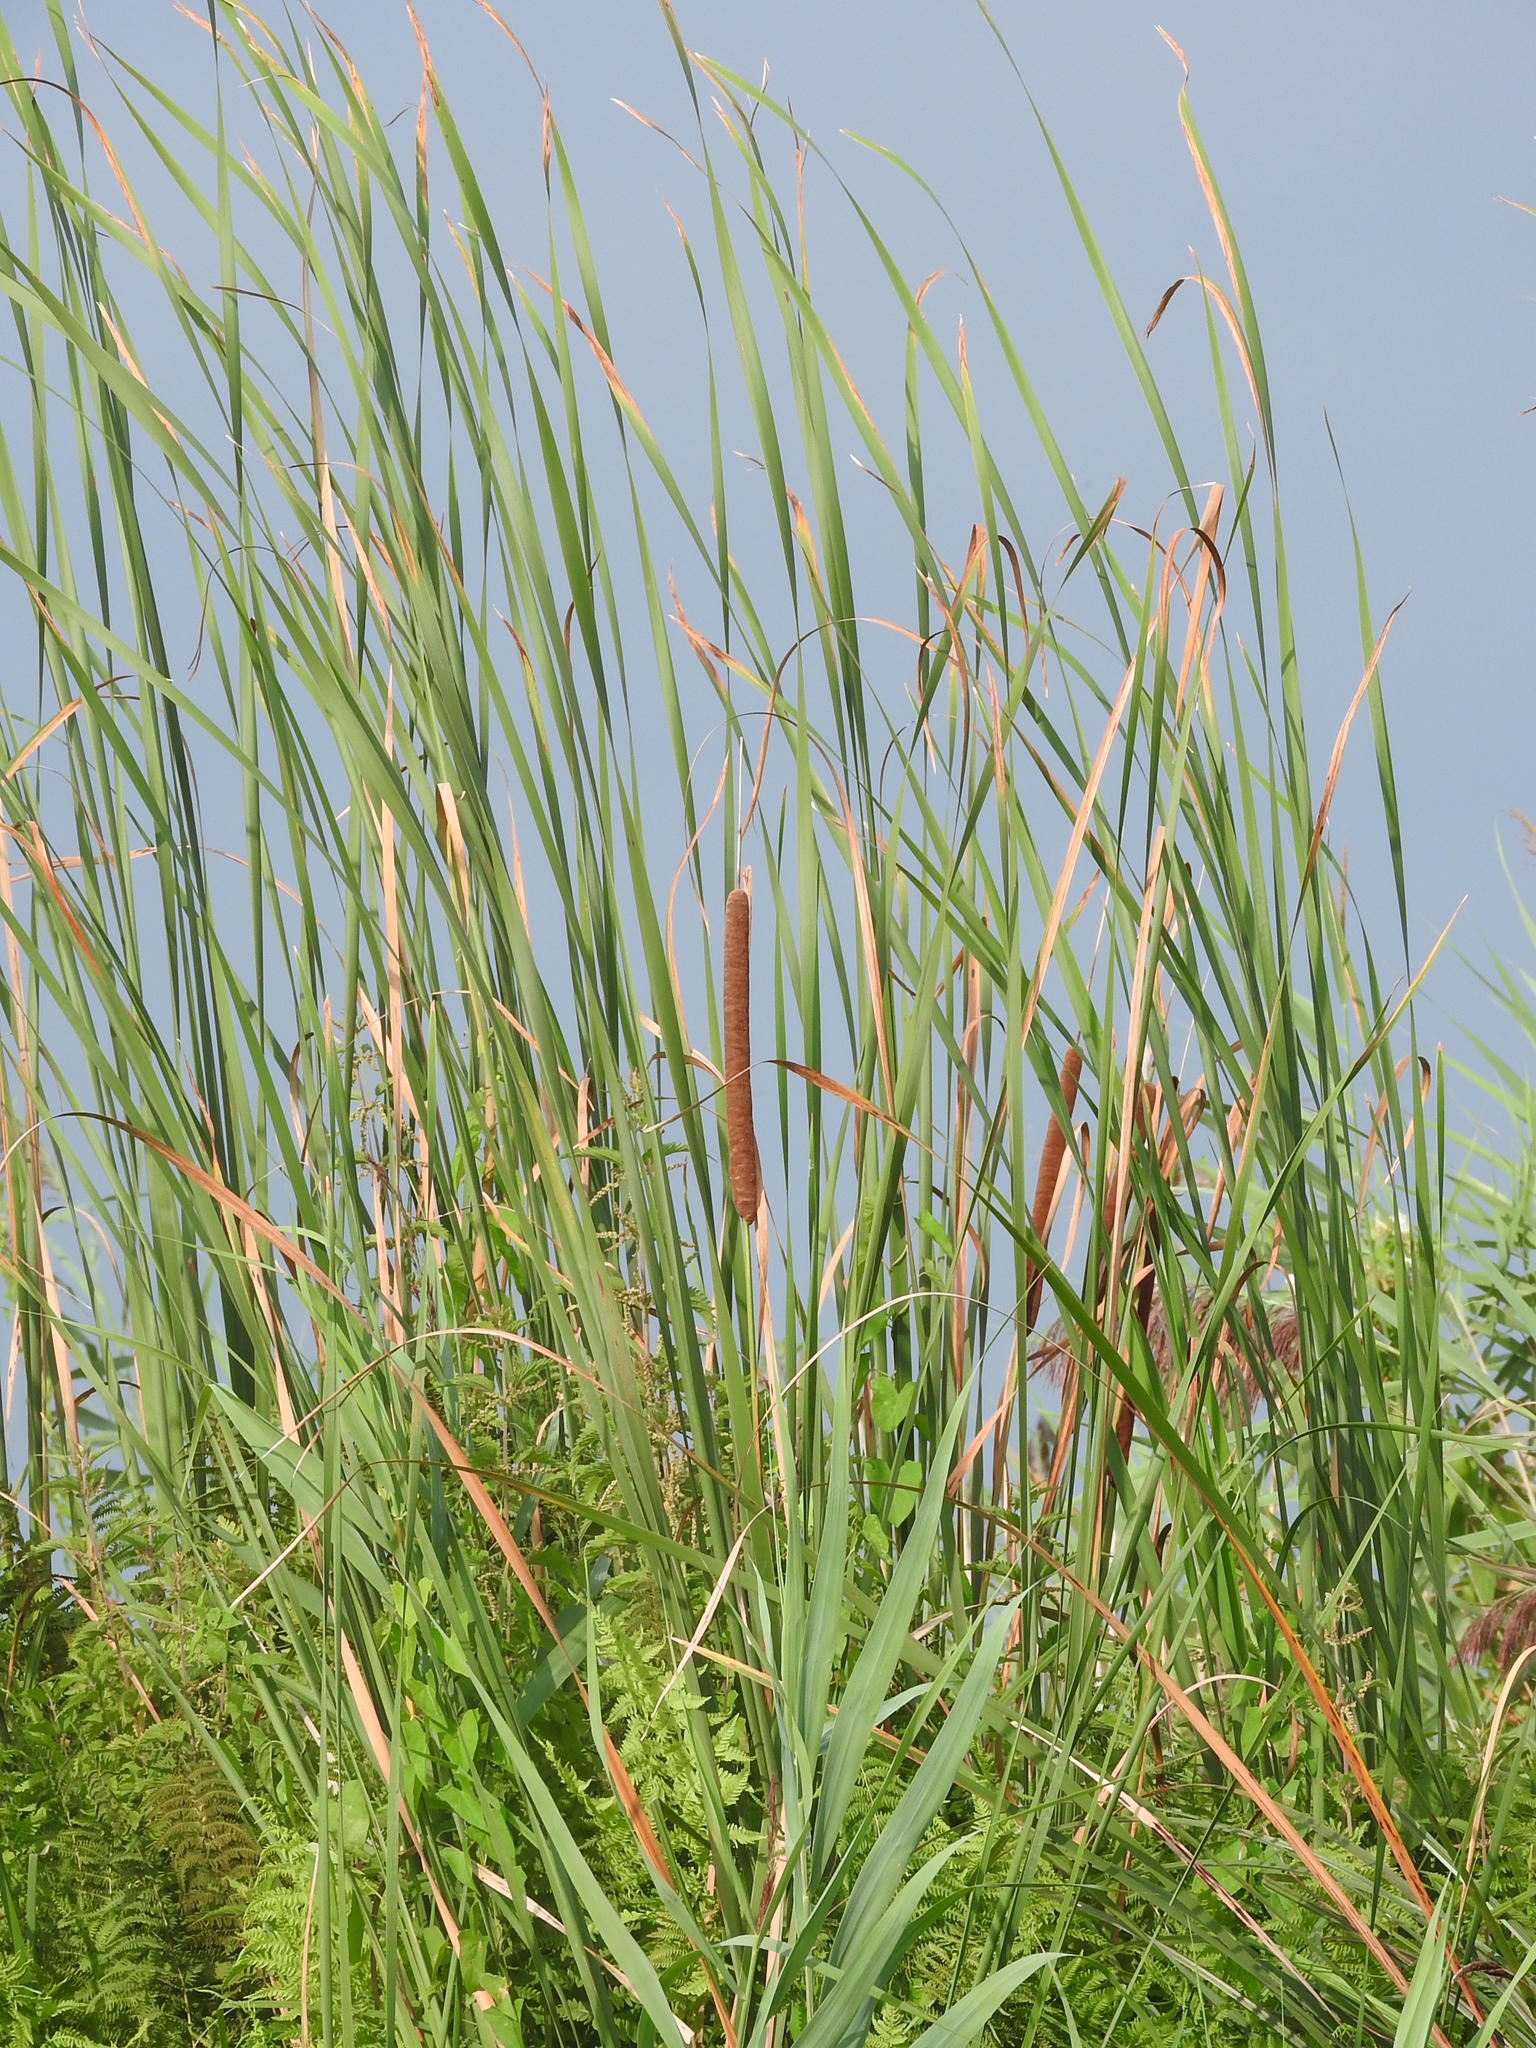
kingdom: Plantae
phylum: Tracheophyta
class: Liliopsida
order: Poales
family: Typhaceae
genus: Typha
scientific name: Typha angustifolia
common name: Lesser bulrush
